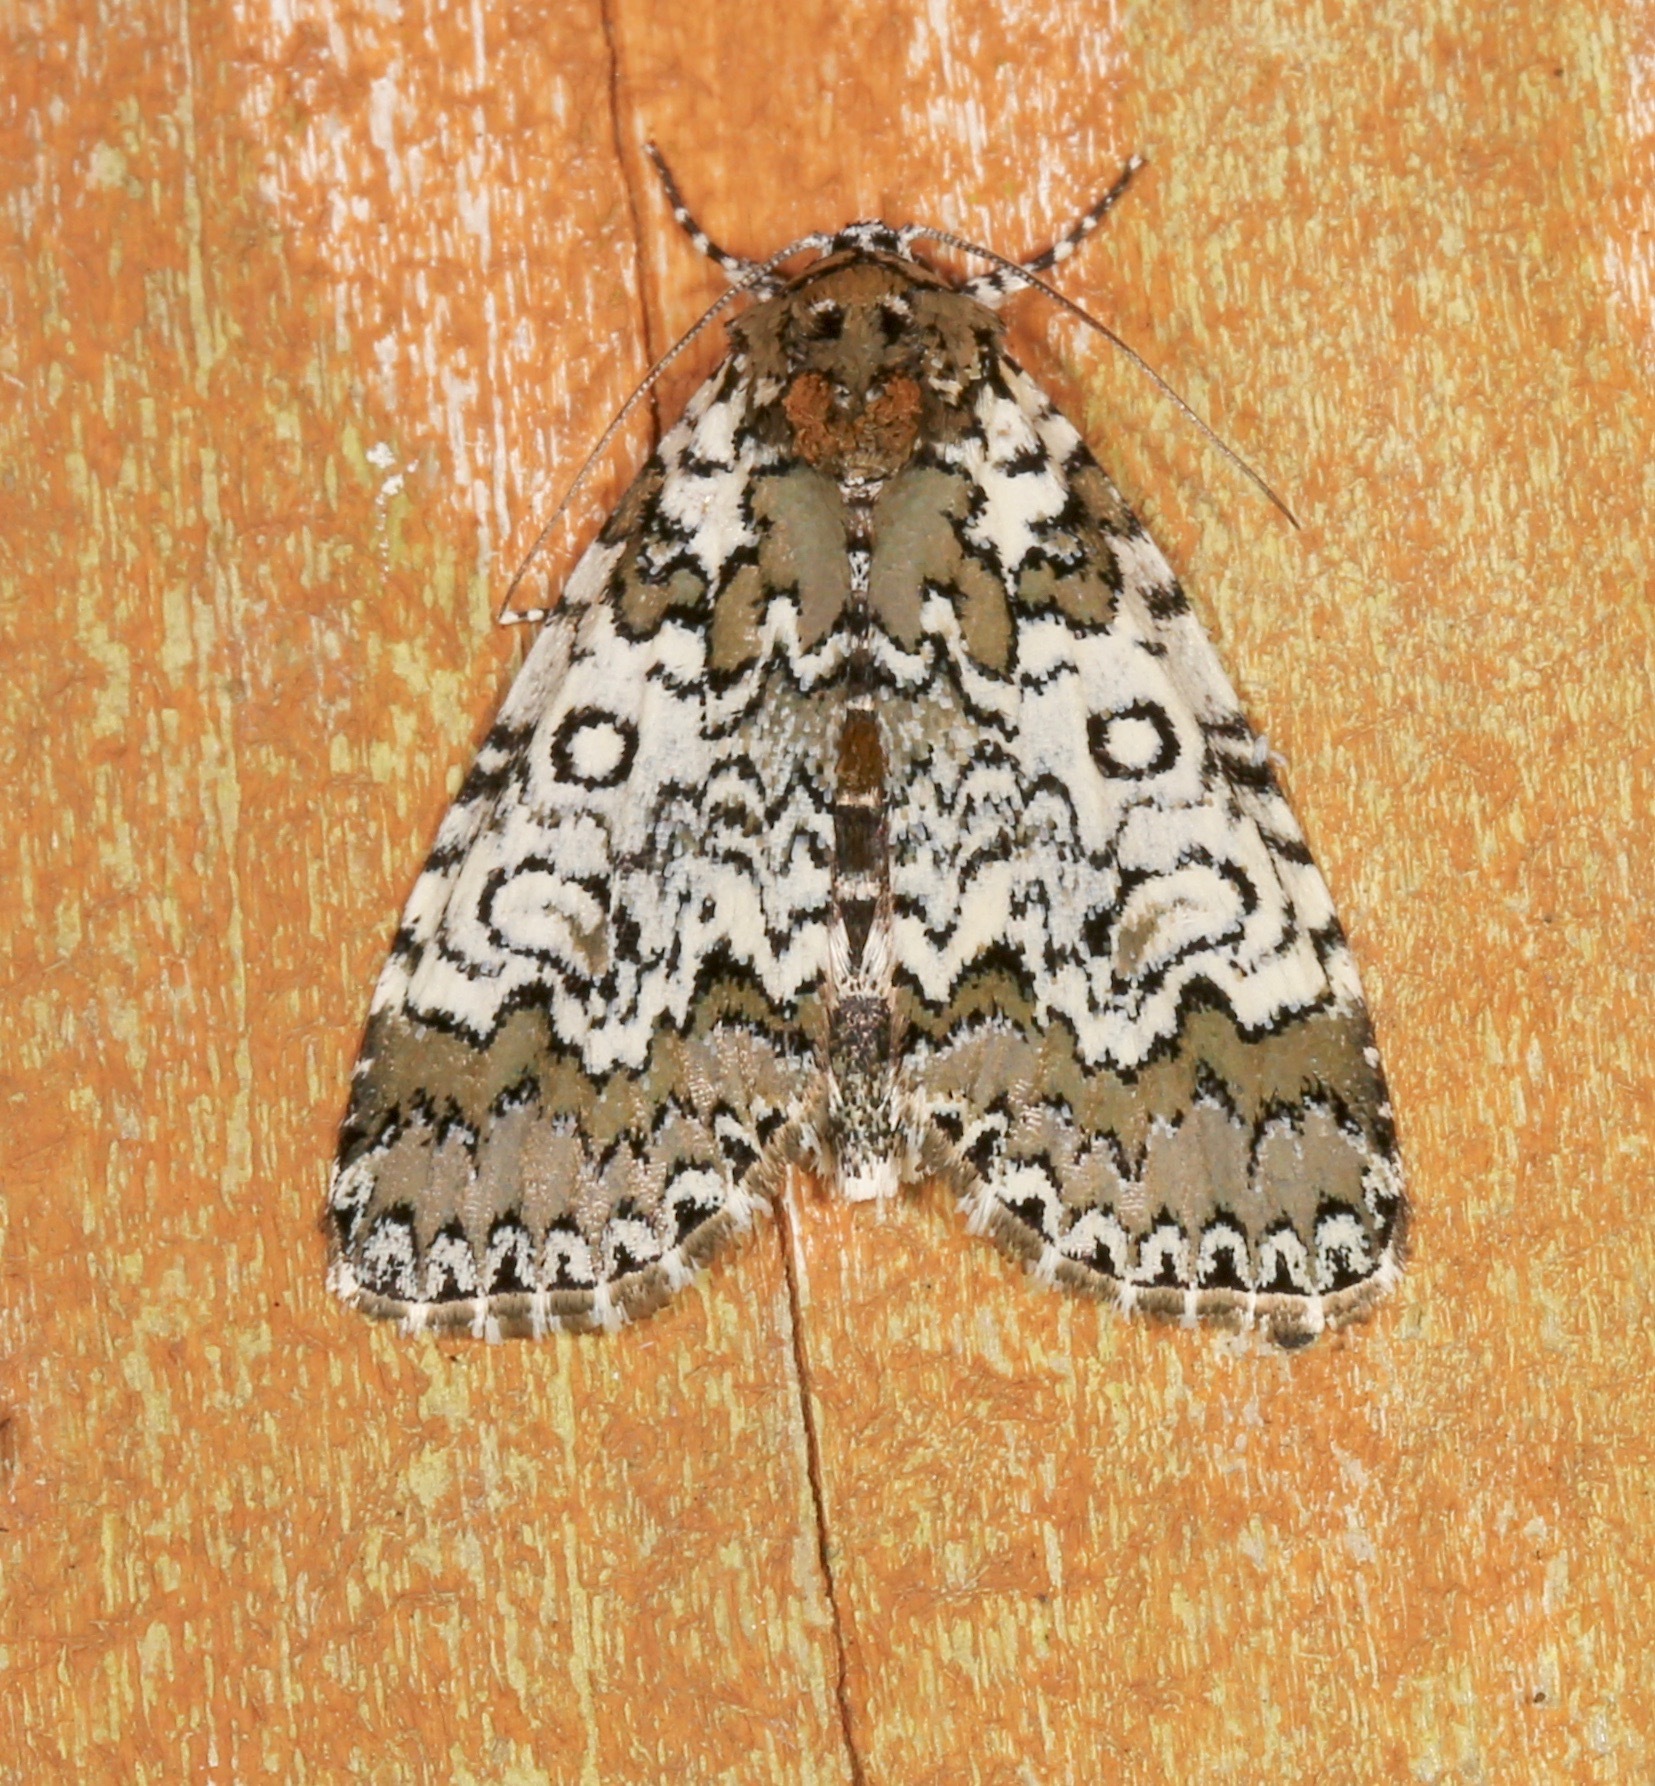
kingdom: Animalia
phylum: Arthropoda
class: Insecta
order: Lepidoptera
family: Noctuidae
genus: Cerma
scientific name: Cerma cora
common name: Bird dropping moth
